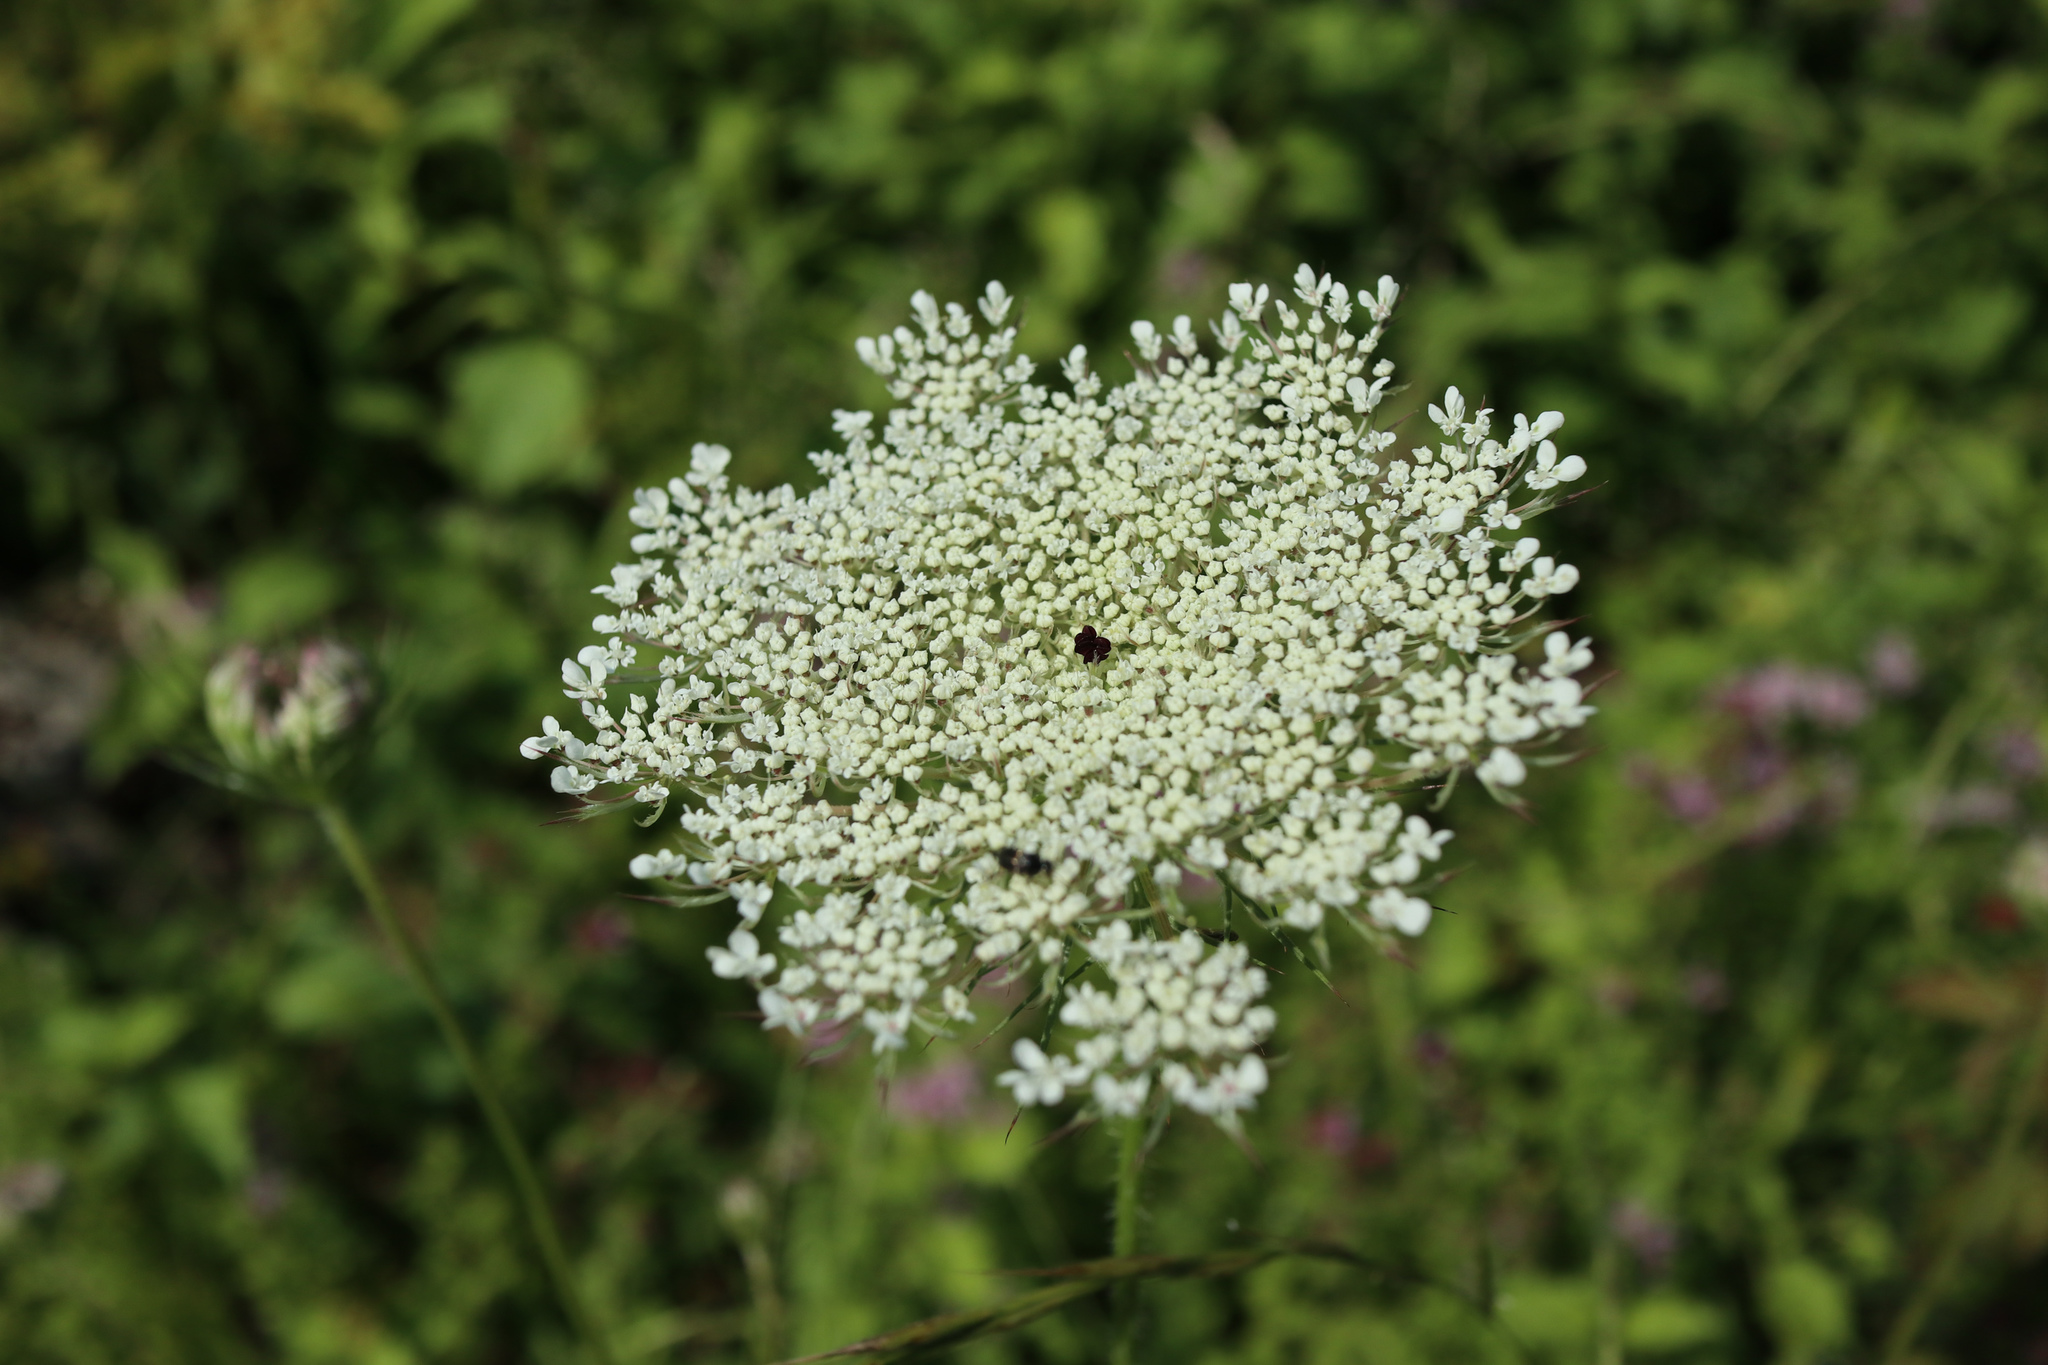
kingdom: Plantae
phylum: Tracheophyta
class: Magnoliopsida
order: Apiales
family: Apiaceae
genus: Daucus
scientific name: Daucus carota
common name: Wild carrot
